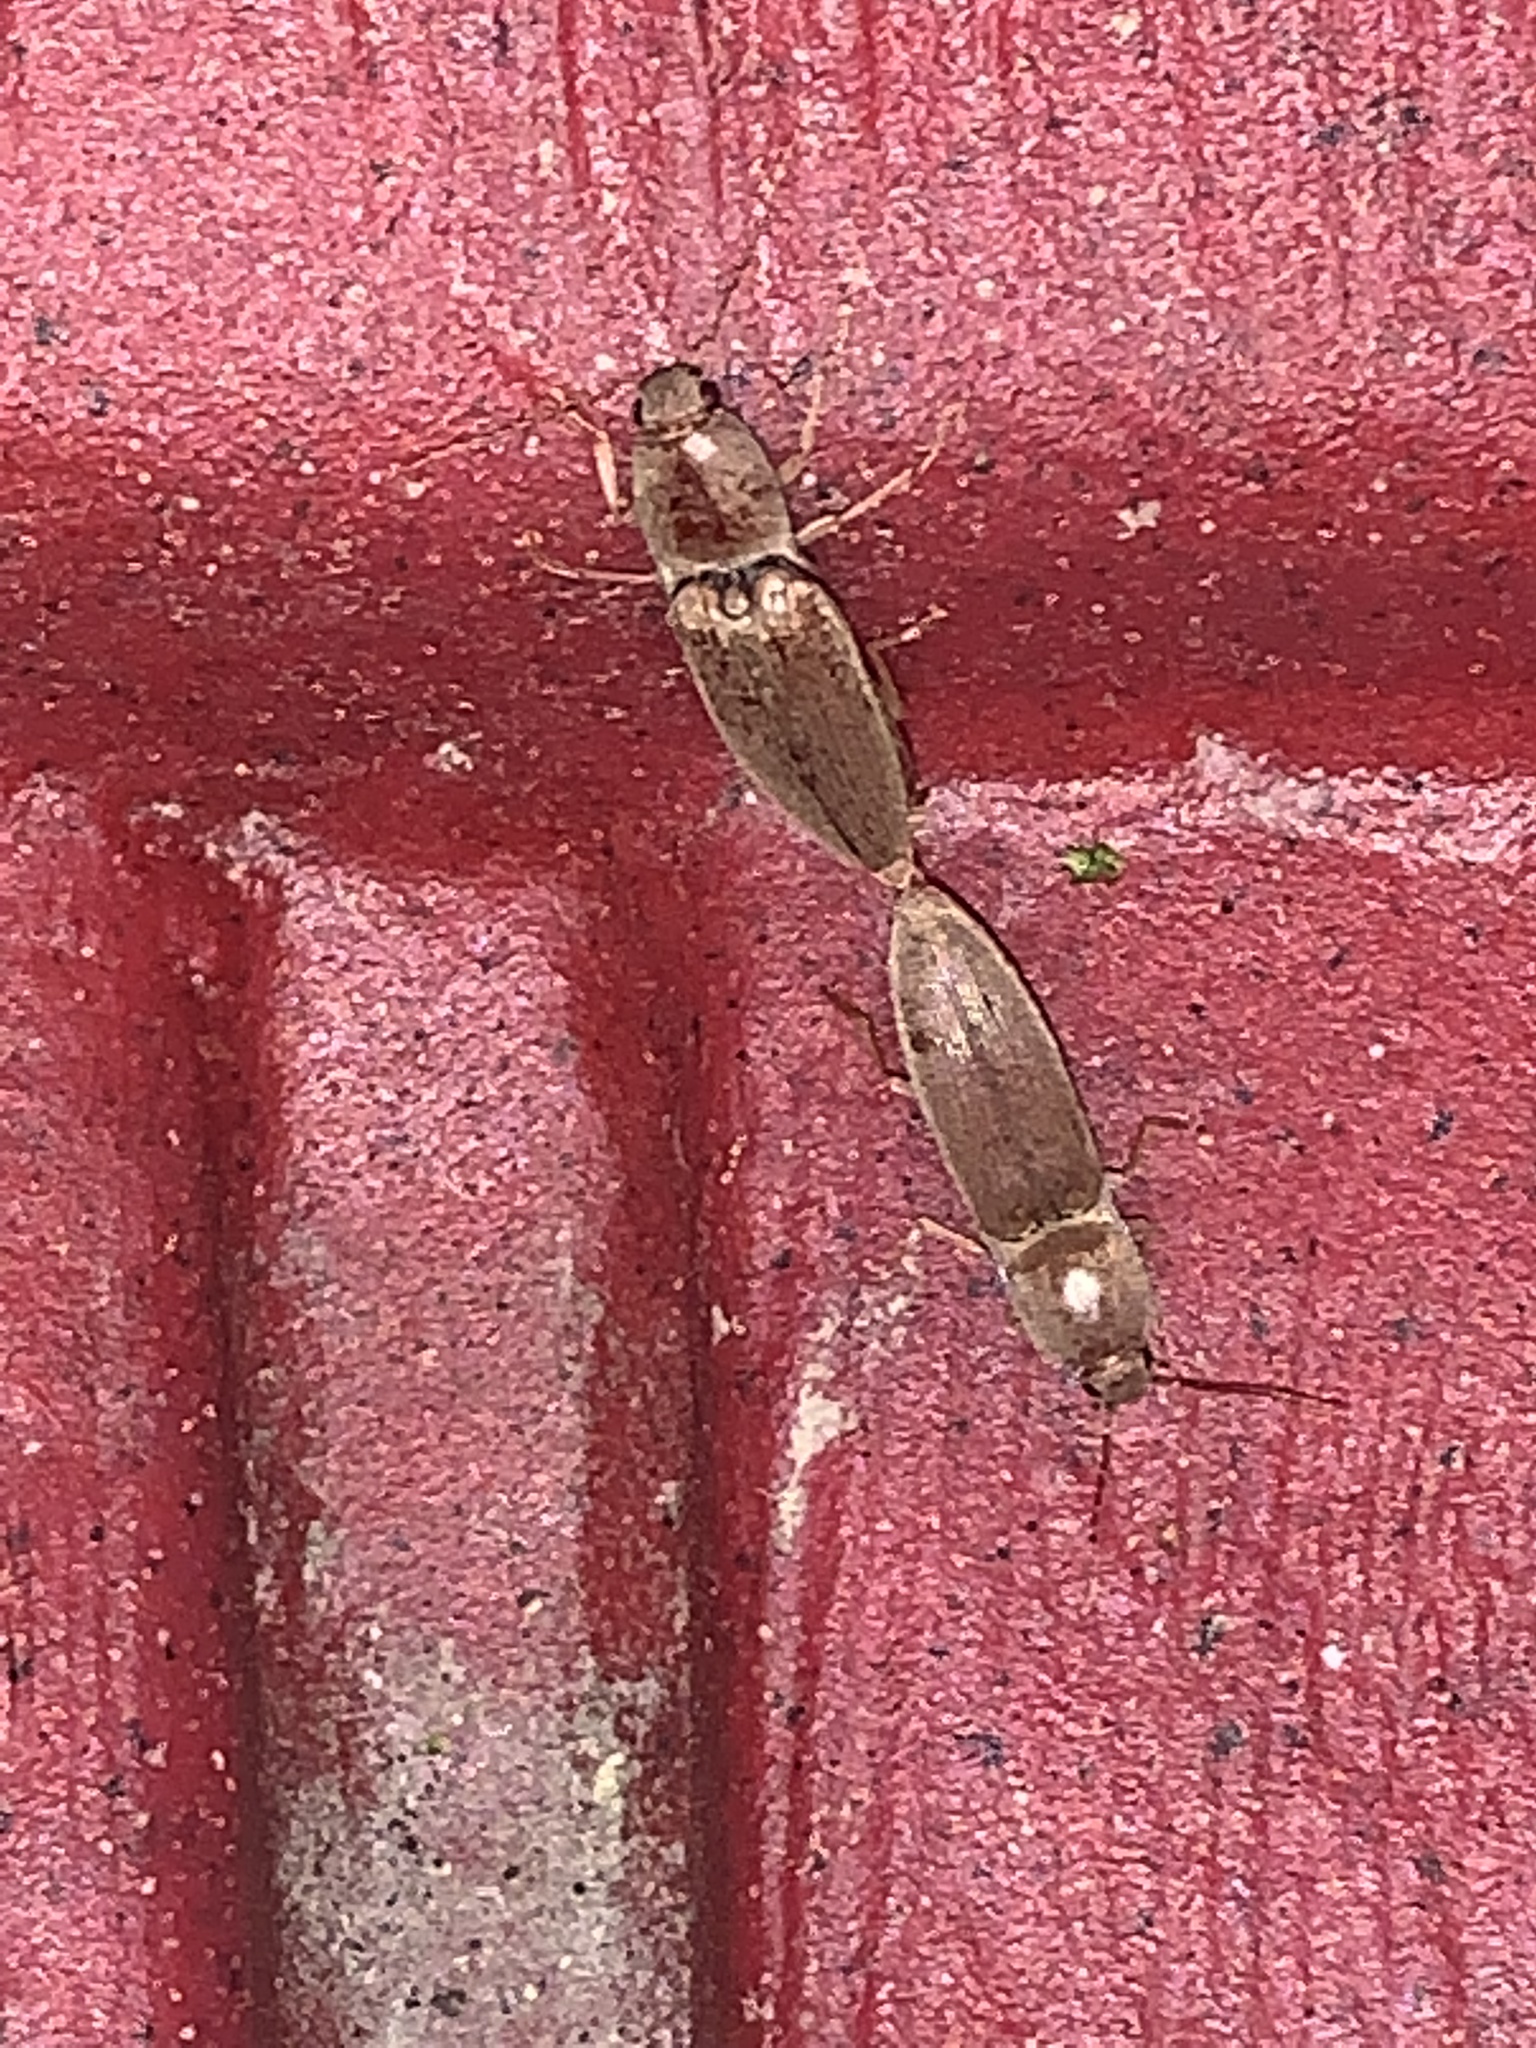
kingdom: Animalia
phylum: Arthropoda
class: Insecta
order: Coleoptera
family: Elateridae
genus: Monocrepidius
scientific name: Monocrepidius lividus
